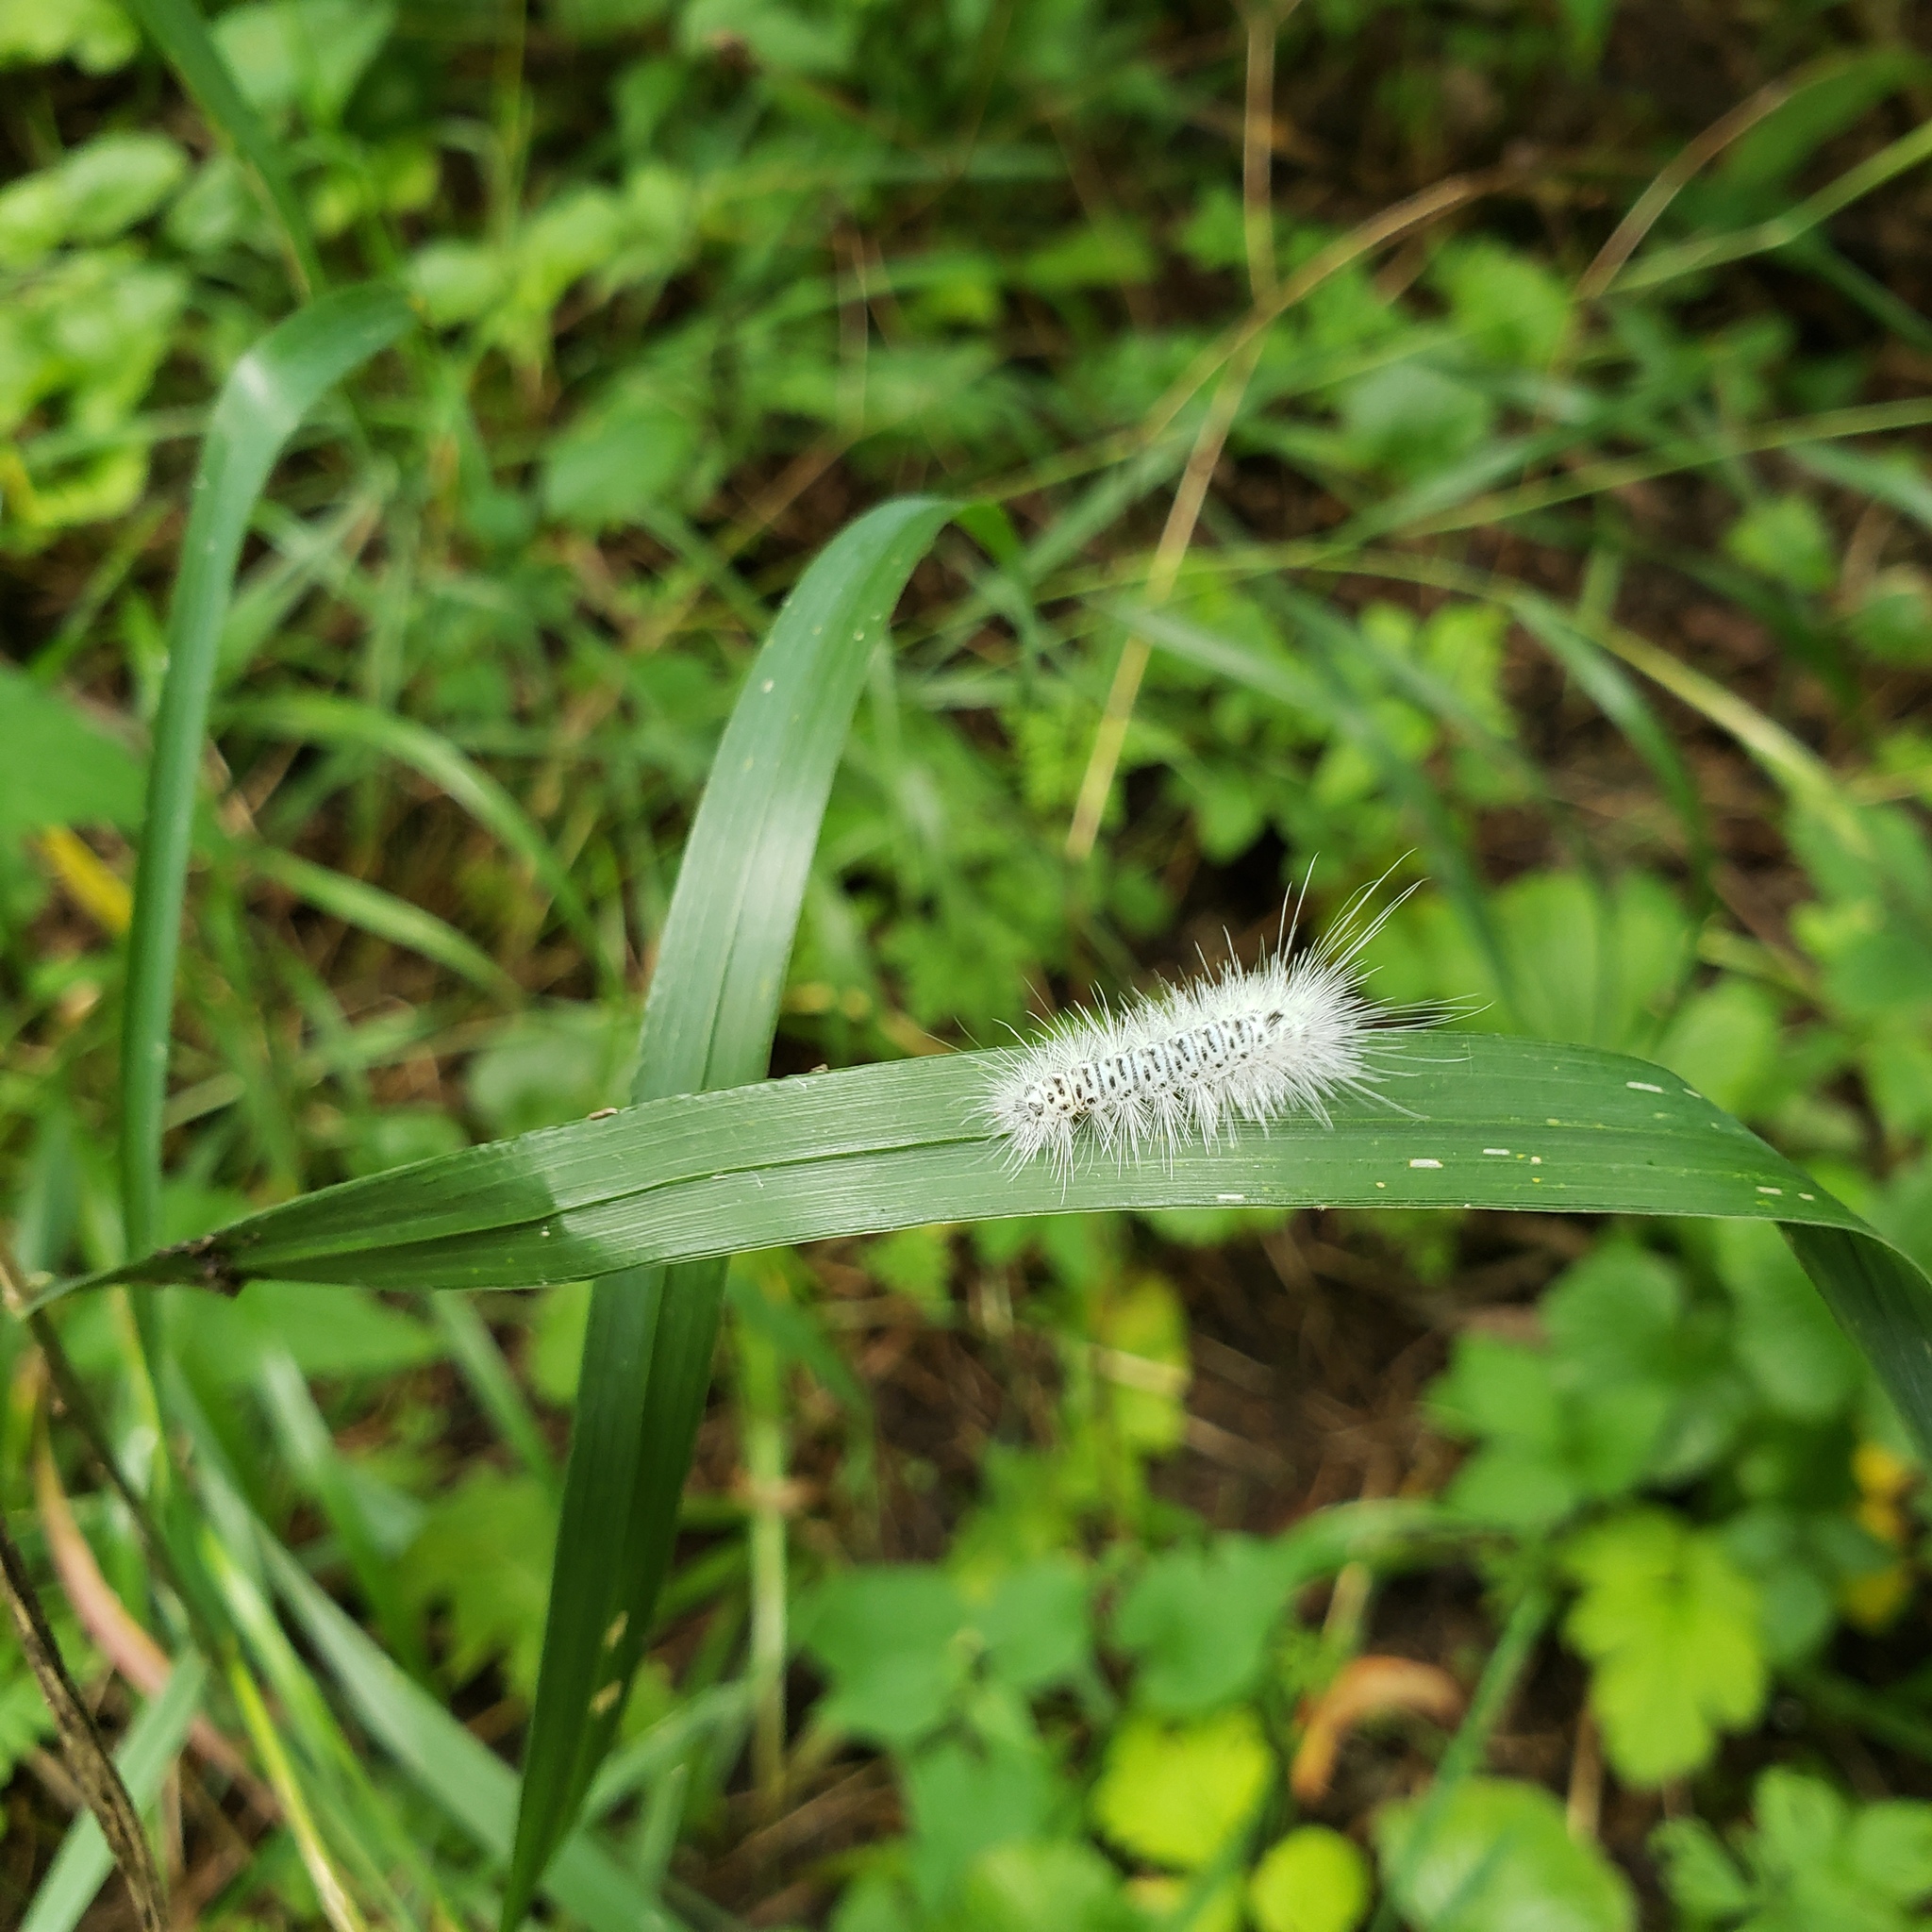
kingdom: Animalia
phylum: Arthropoda
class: Insecta
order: Lepidoptera
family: Erebidae
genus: Lophocampa
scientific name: Lophocampa caryae
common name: Hickory tussock moth
